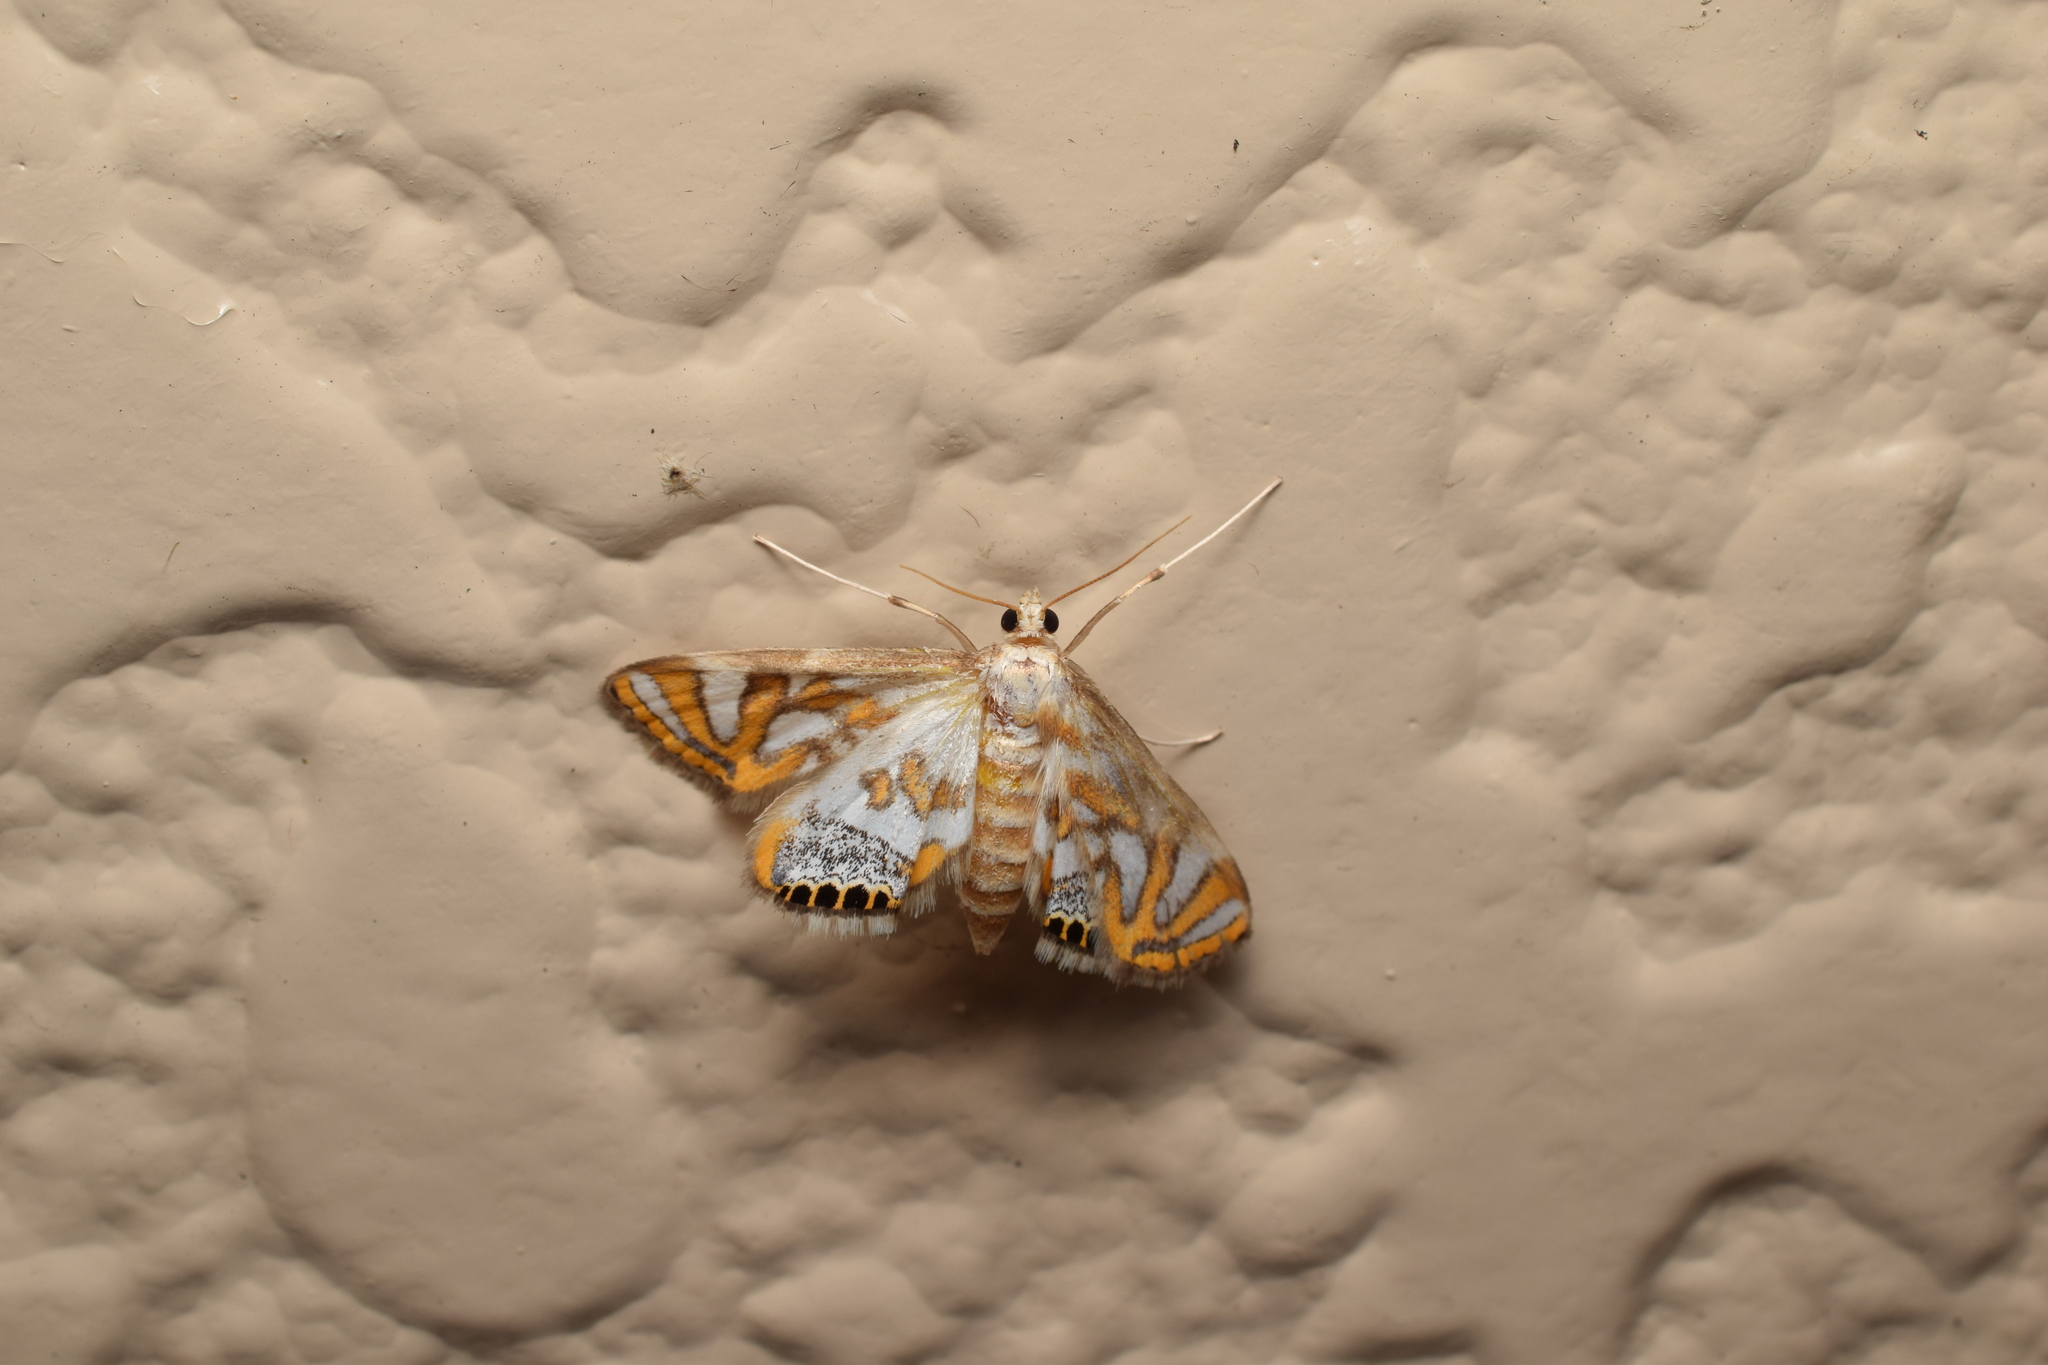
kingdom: Animalia
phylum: Arthropoda
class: Insecta
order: Lepidoptera
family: Crambidae
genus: Potamomusa
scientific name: Potamomusa midas
